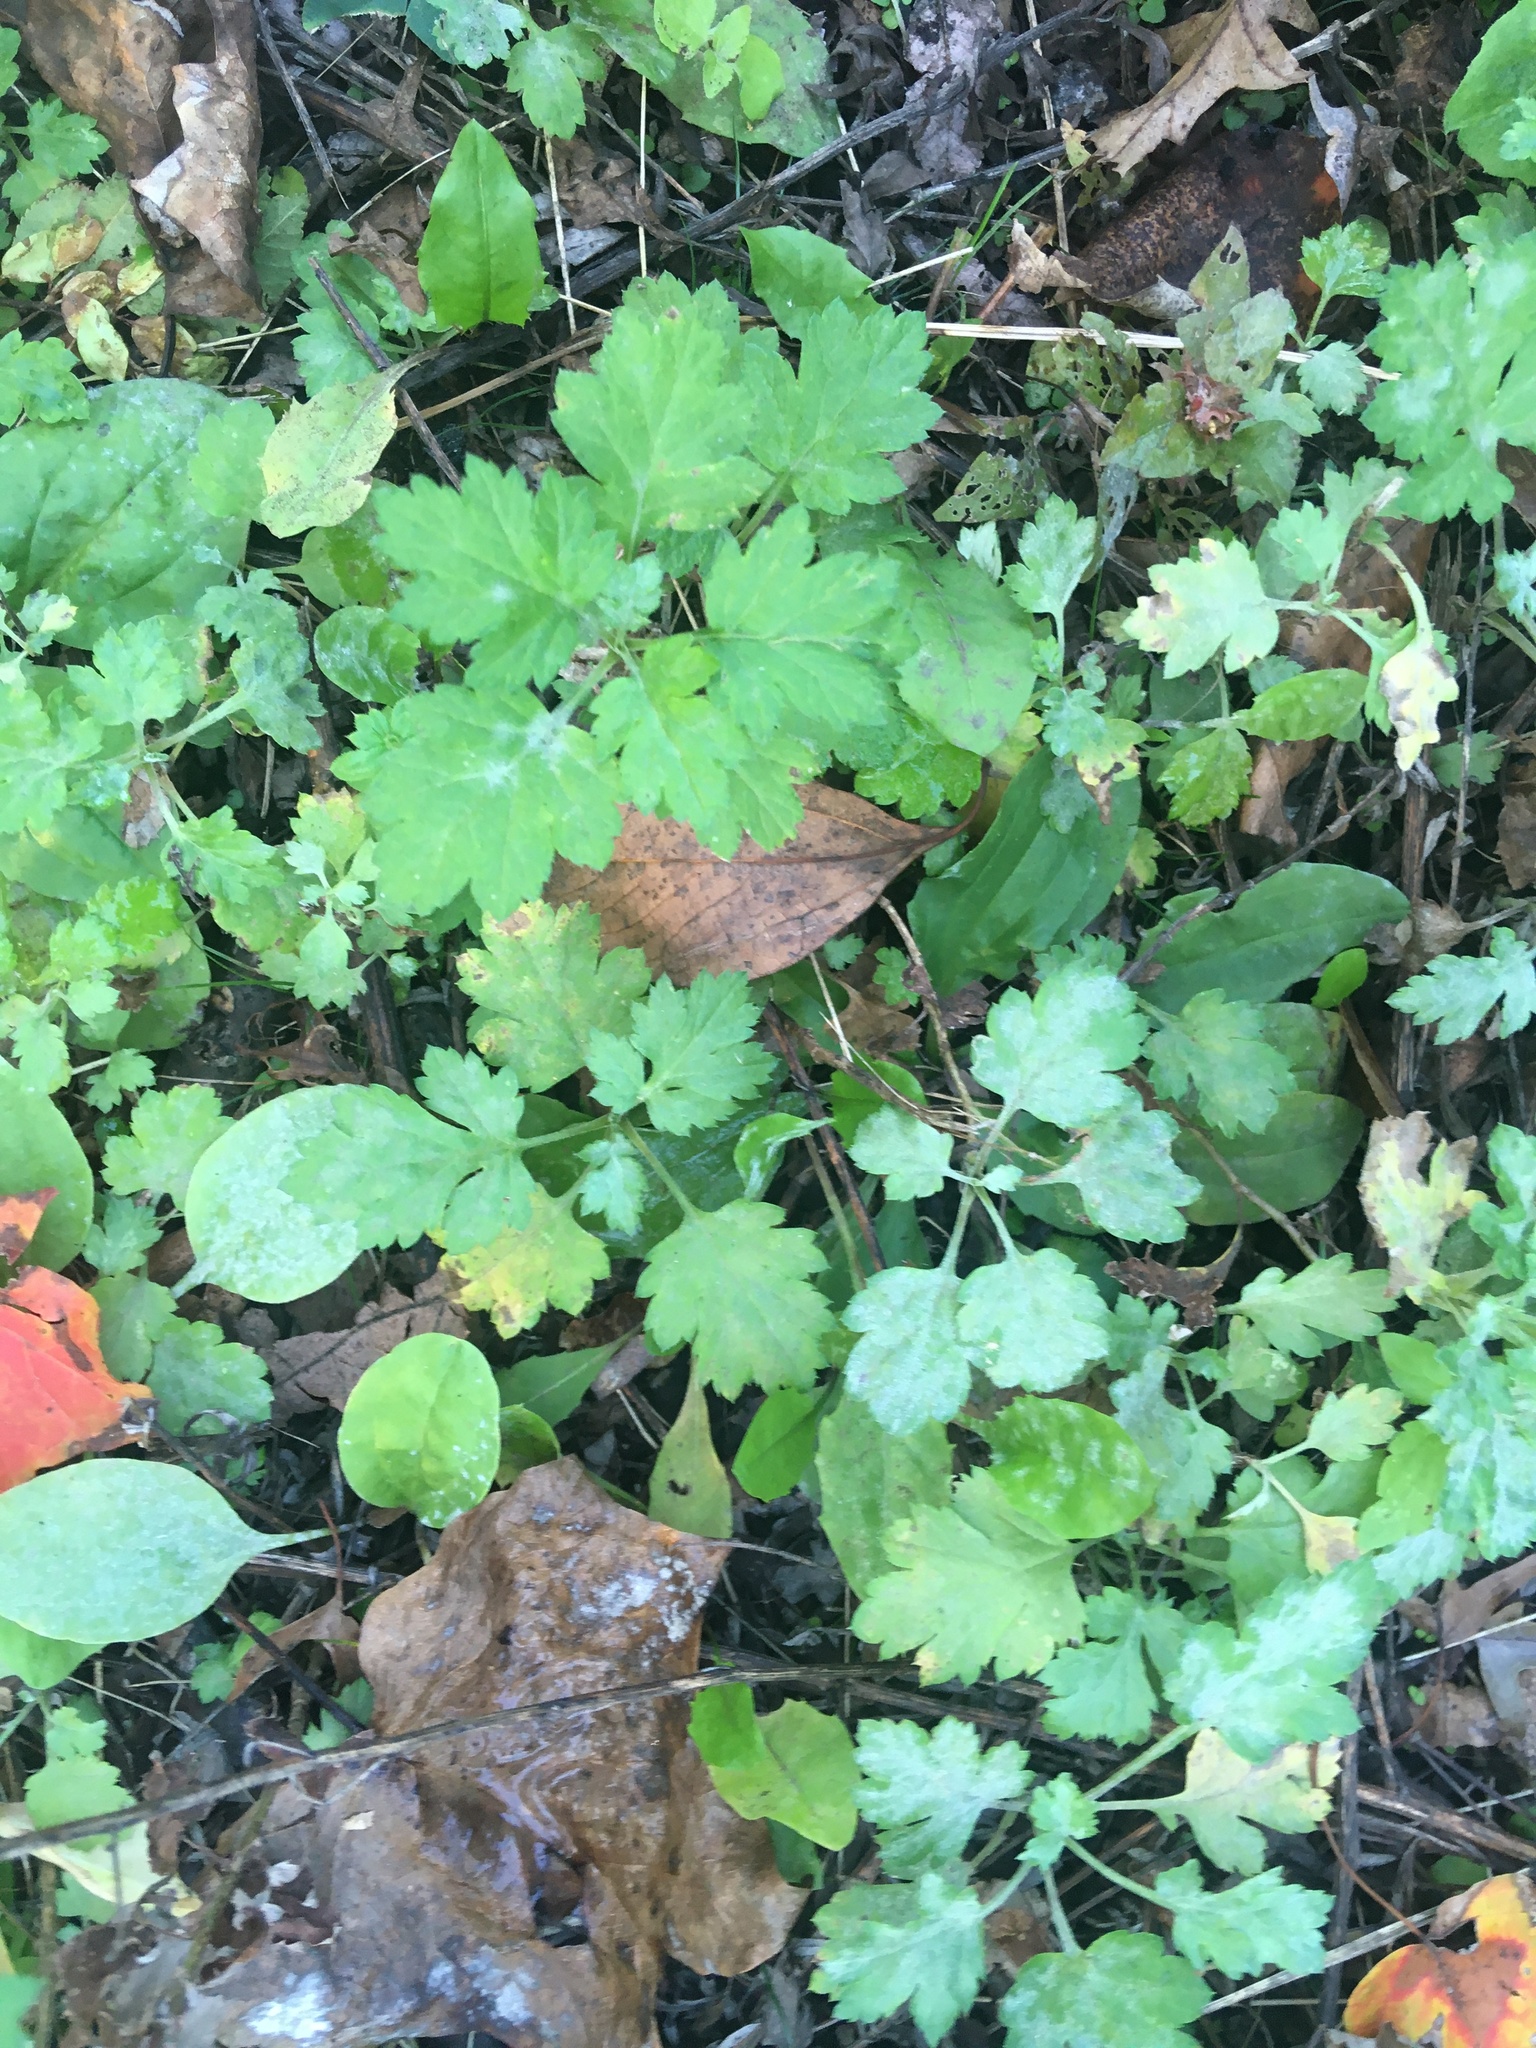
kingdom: Plantae
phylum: Tracheophyta
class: Magnoliopsida
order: Asterales
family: Asteraceae
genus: Artemisia
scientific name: Artemisia vulgaris
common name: Mugwort
